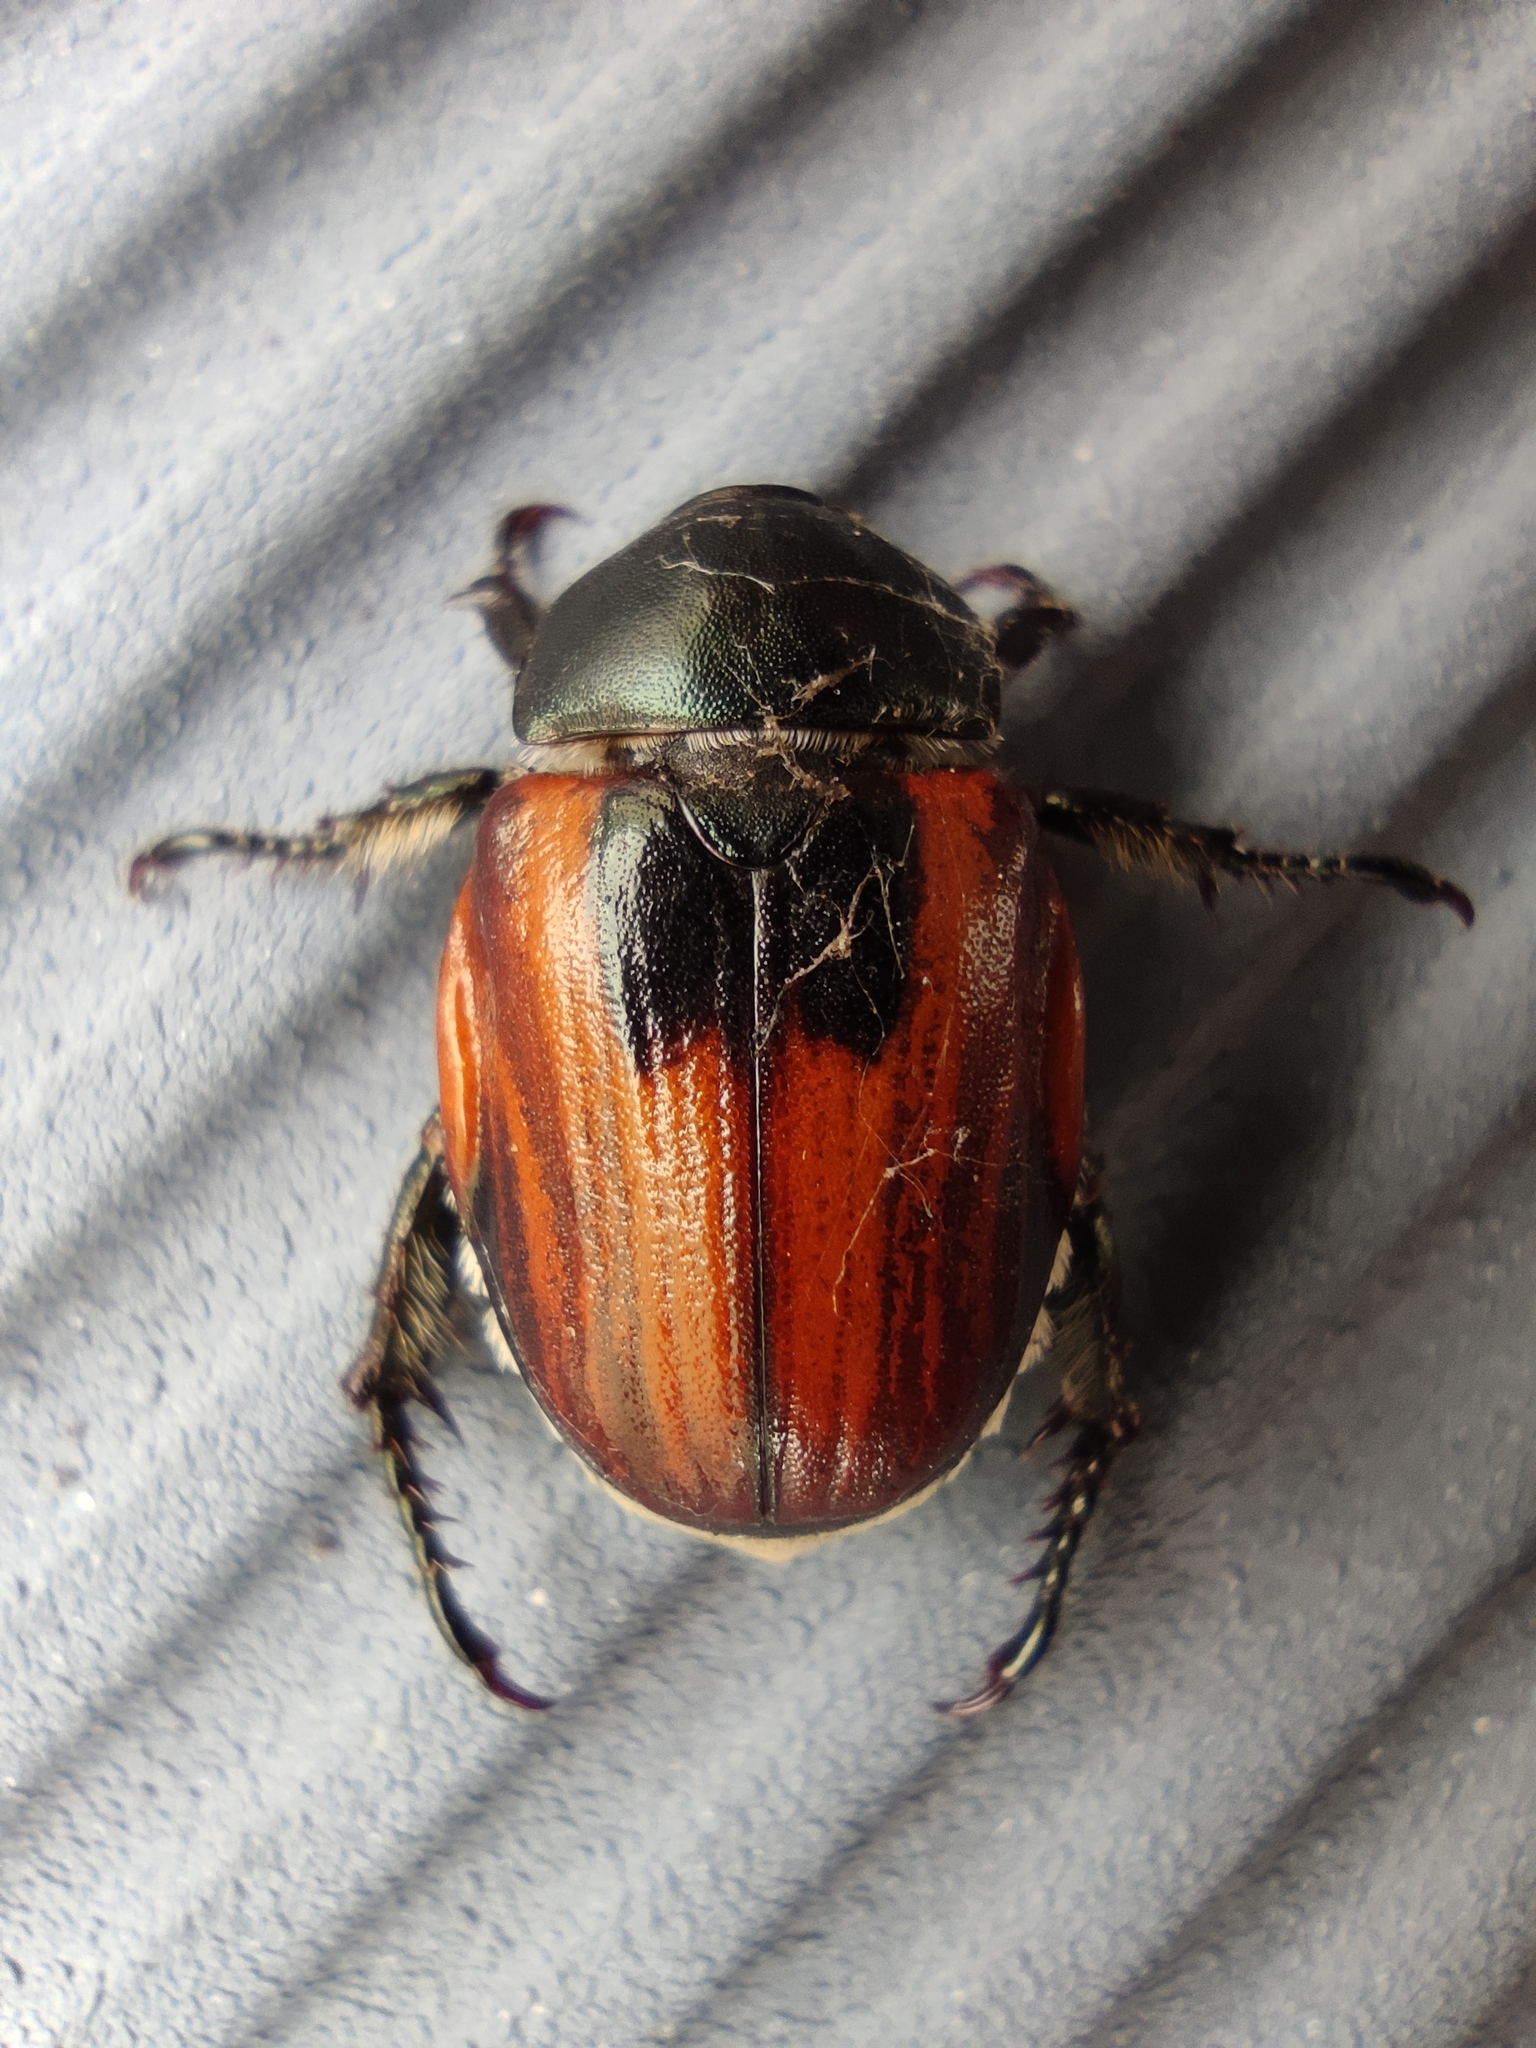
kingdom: Animalia
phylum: Arthropoda
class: Insecta
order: Coleoptera
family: Scarabaeidae
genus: Anisoplia
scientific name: Anisoplia austriaca
